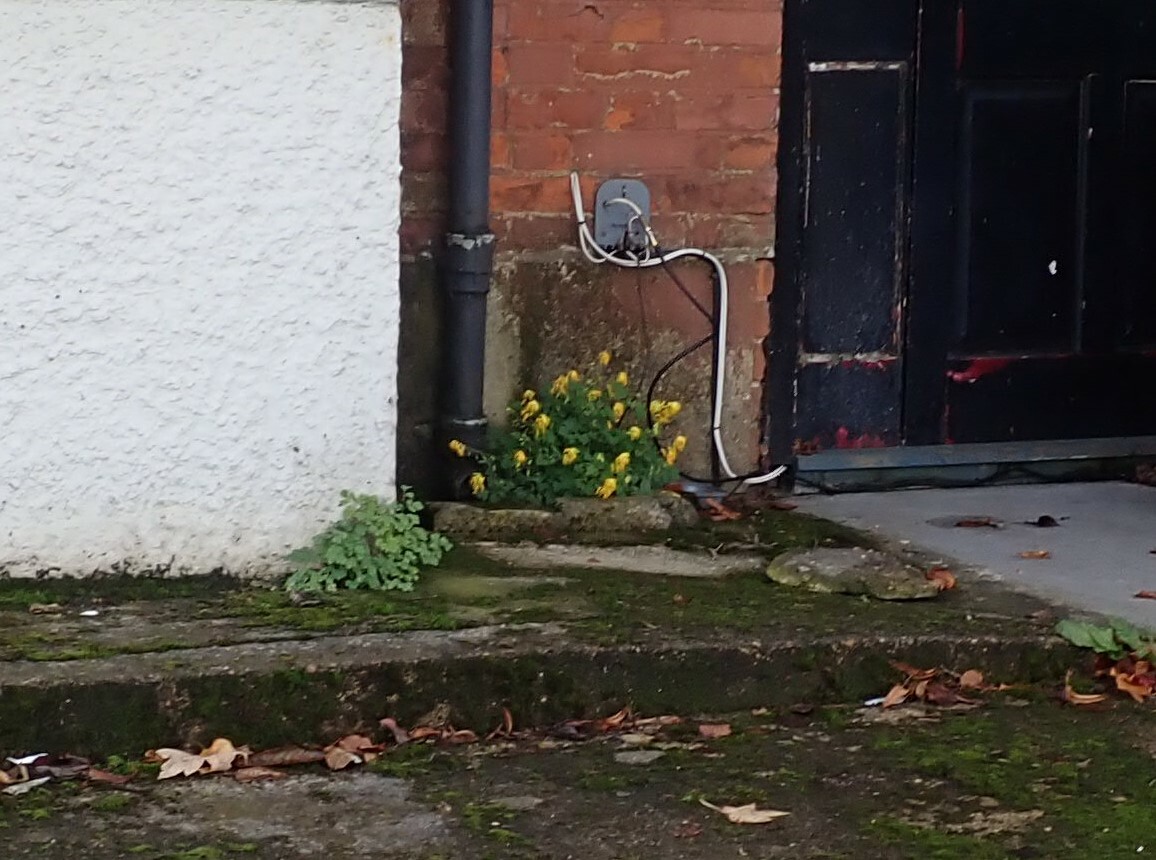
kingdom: Plantae
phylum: Tracheophyta
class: Magnoliopsida
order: Ranunculales
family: Papaveraceae
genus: Pseudofumaria
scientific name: Pseudofumaria lutea
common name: Yellow corydalis
